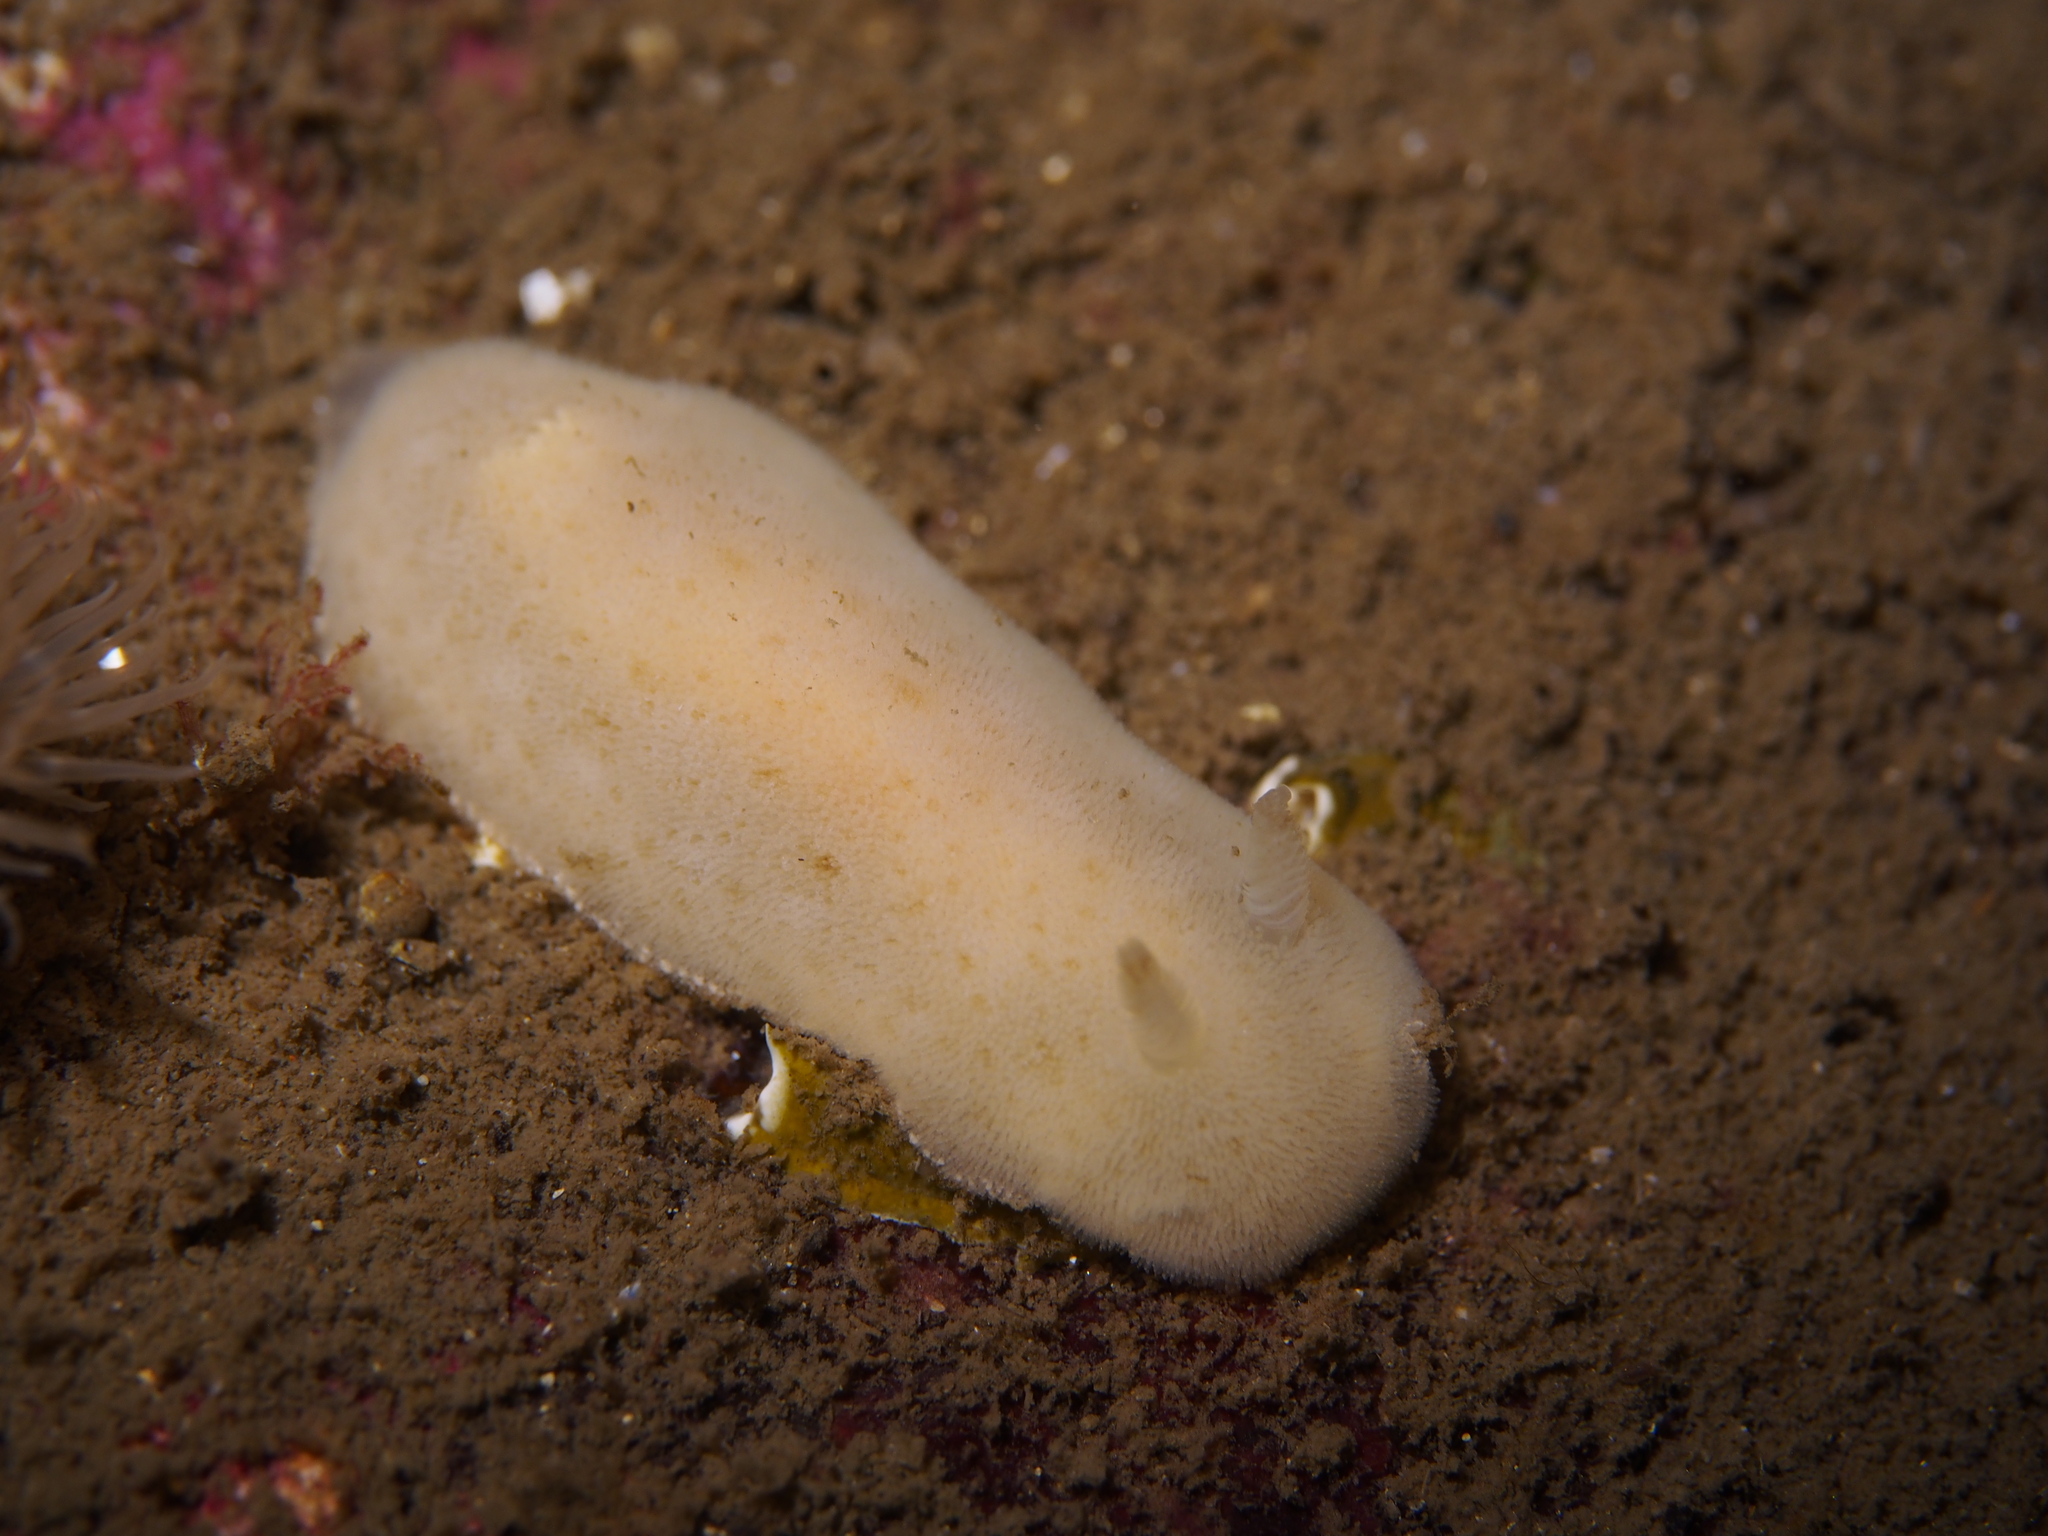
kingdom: Animalia
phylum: Mollusca
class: Gastropoda
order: Nudibranchia
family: Discodorididae
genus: Jorunna
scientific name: Jorunna tomentosa
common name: Grey sea slug
